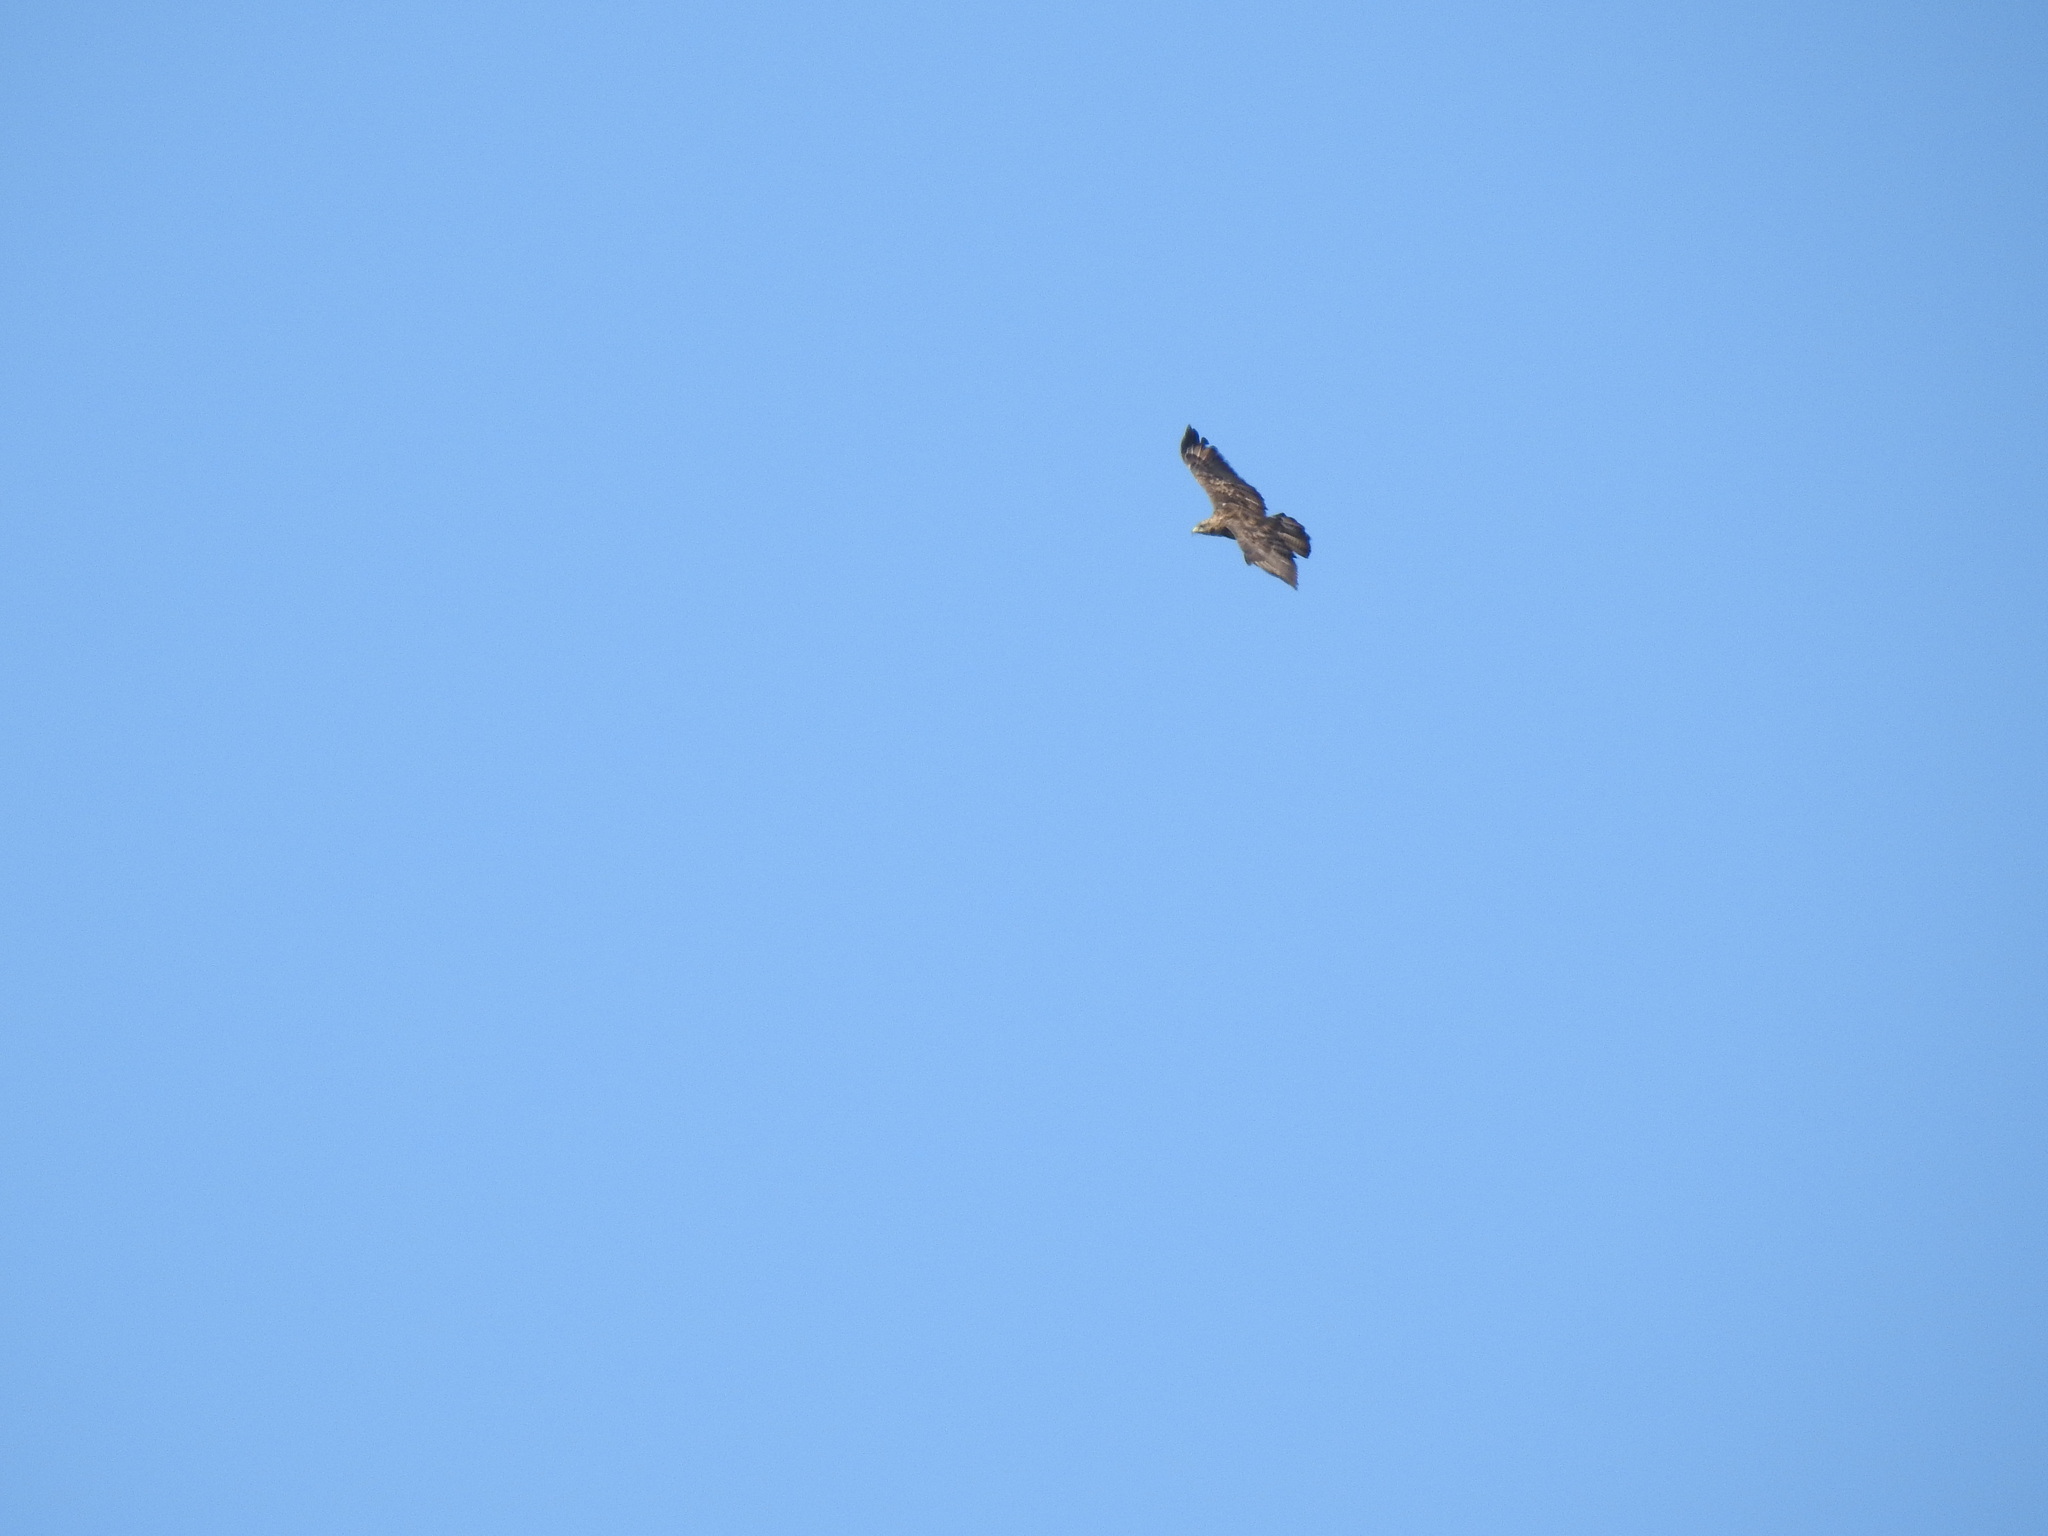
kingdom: Animalia
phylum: Chordata
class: Aves
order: Accipitriformes
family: Accipitridae
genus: Buteo
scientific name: Buteo buteo
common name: Common buzzard
